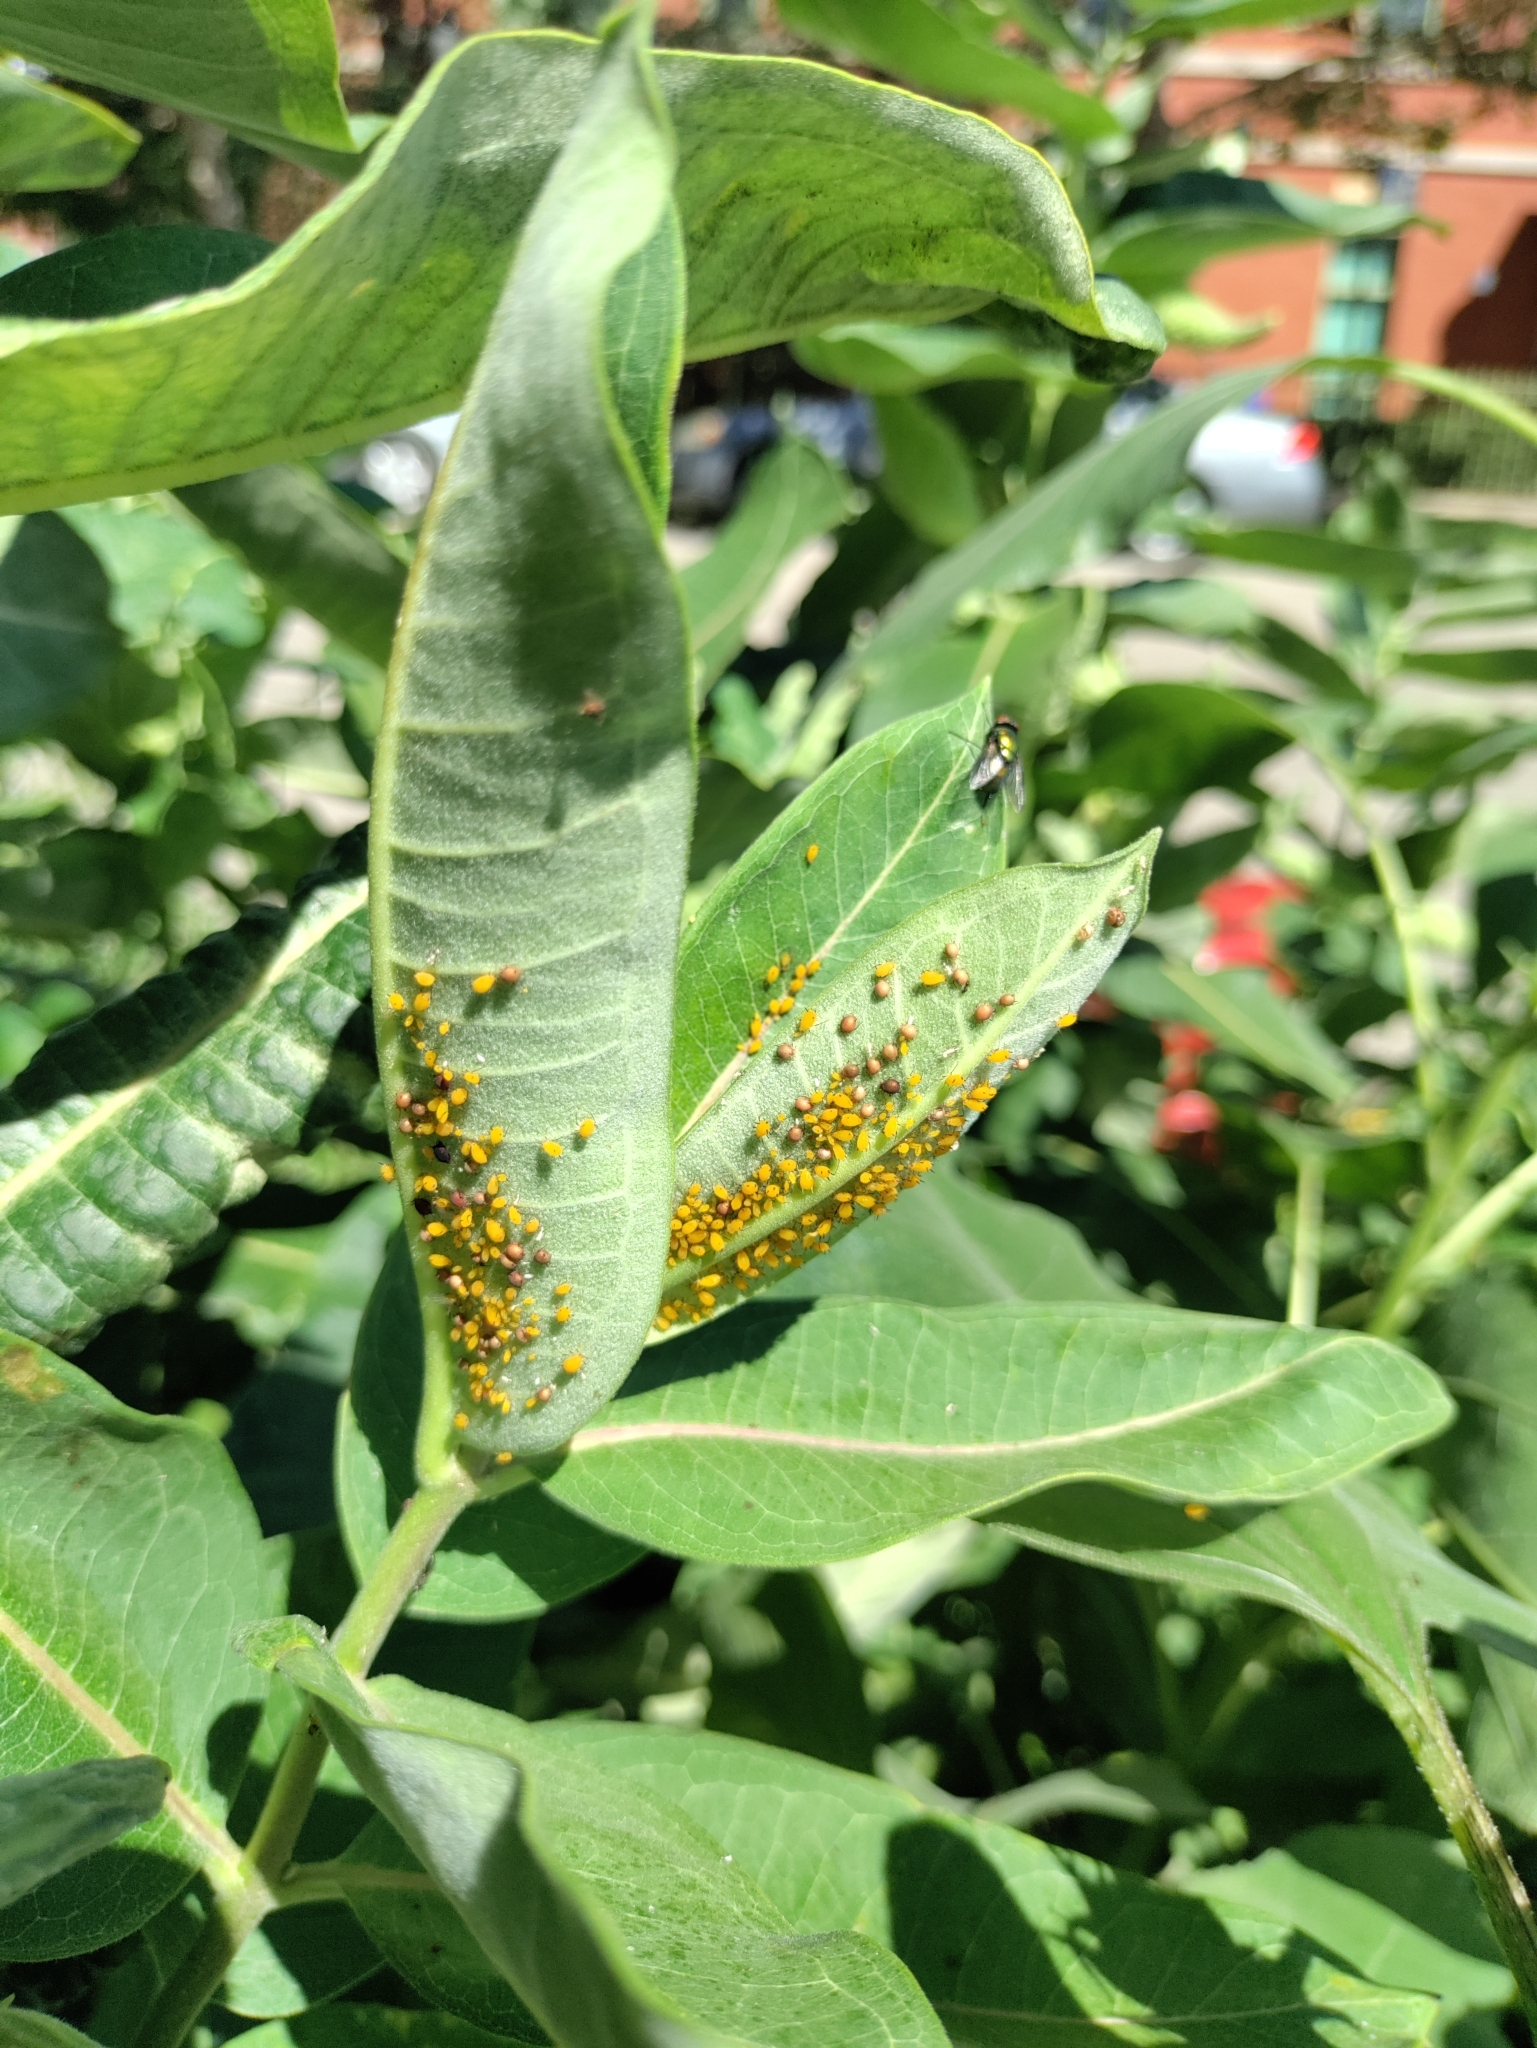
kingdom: Animalia
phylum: Arthropoda
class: Insecta
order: Hemiptera
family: Aphididae
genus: Aphis
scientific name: Aphis nerii
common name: Oleander aphid
